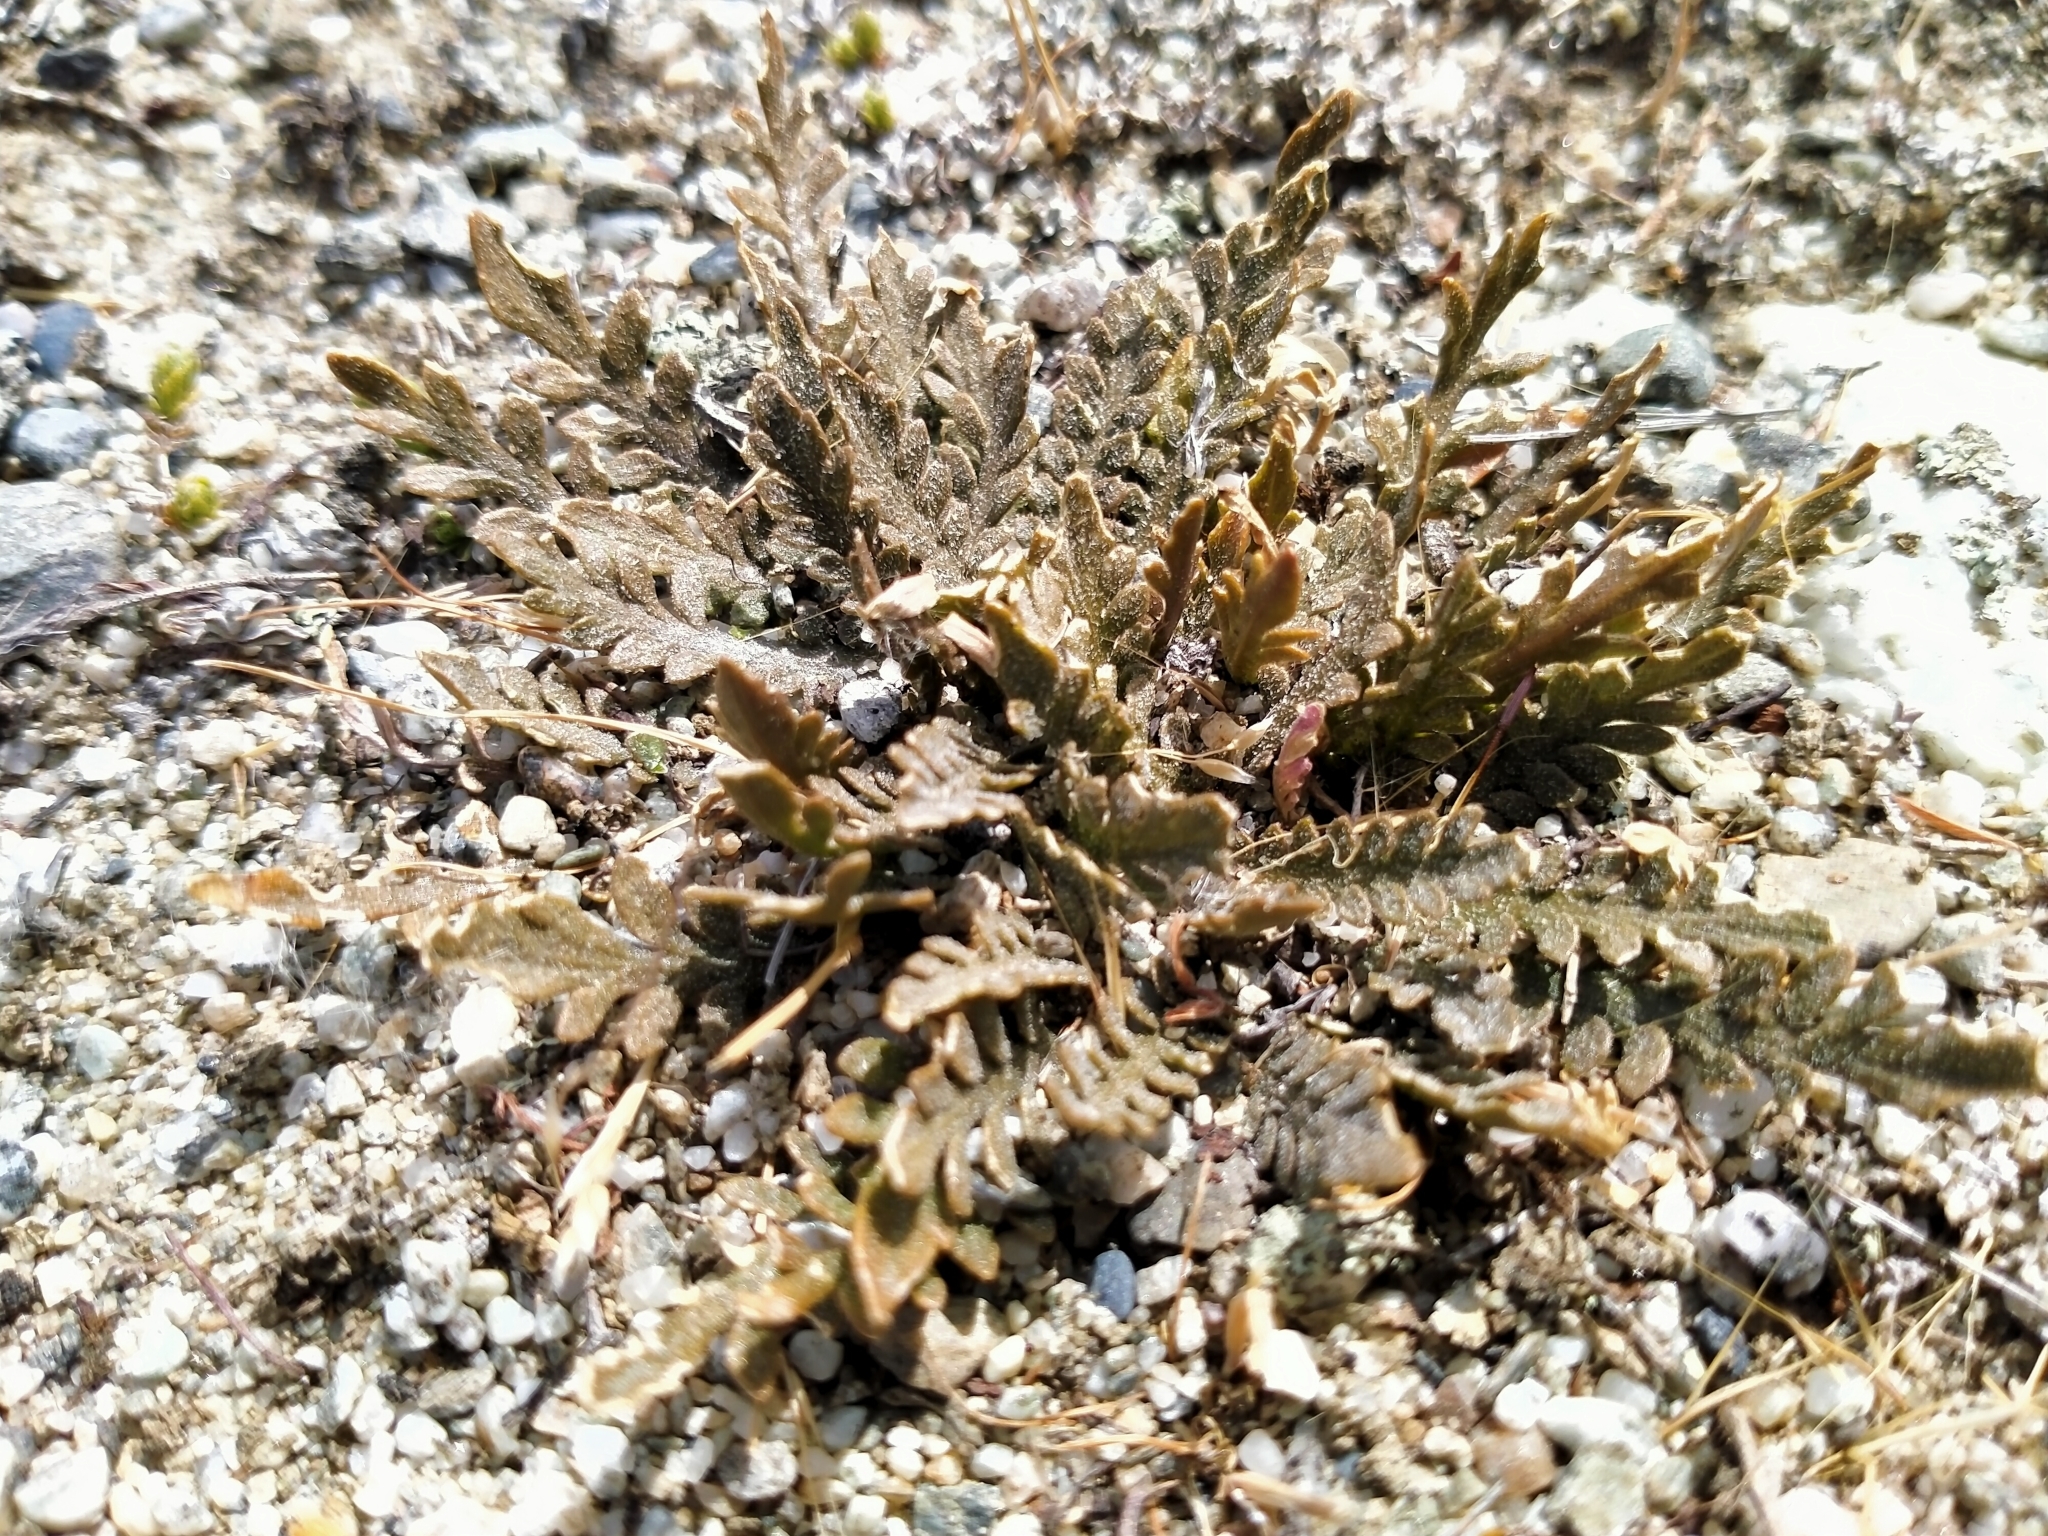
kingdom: Plantae
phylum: Tracheophyta
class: Magnoliopsida
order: Brassicales
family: Brassicaceae
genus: Lepidium
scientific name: Lepidium sisymbrioides
